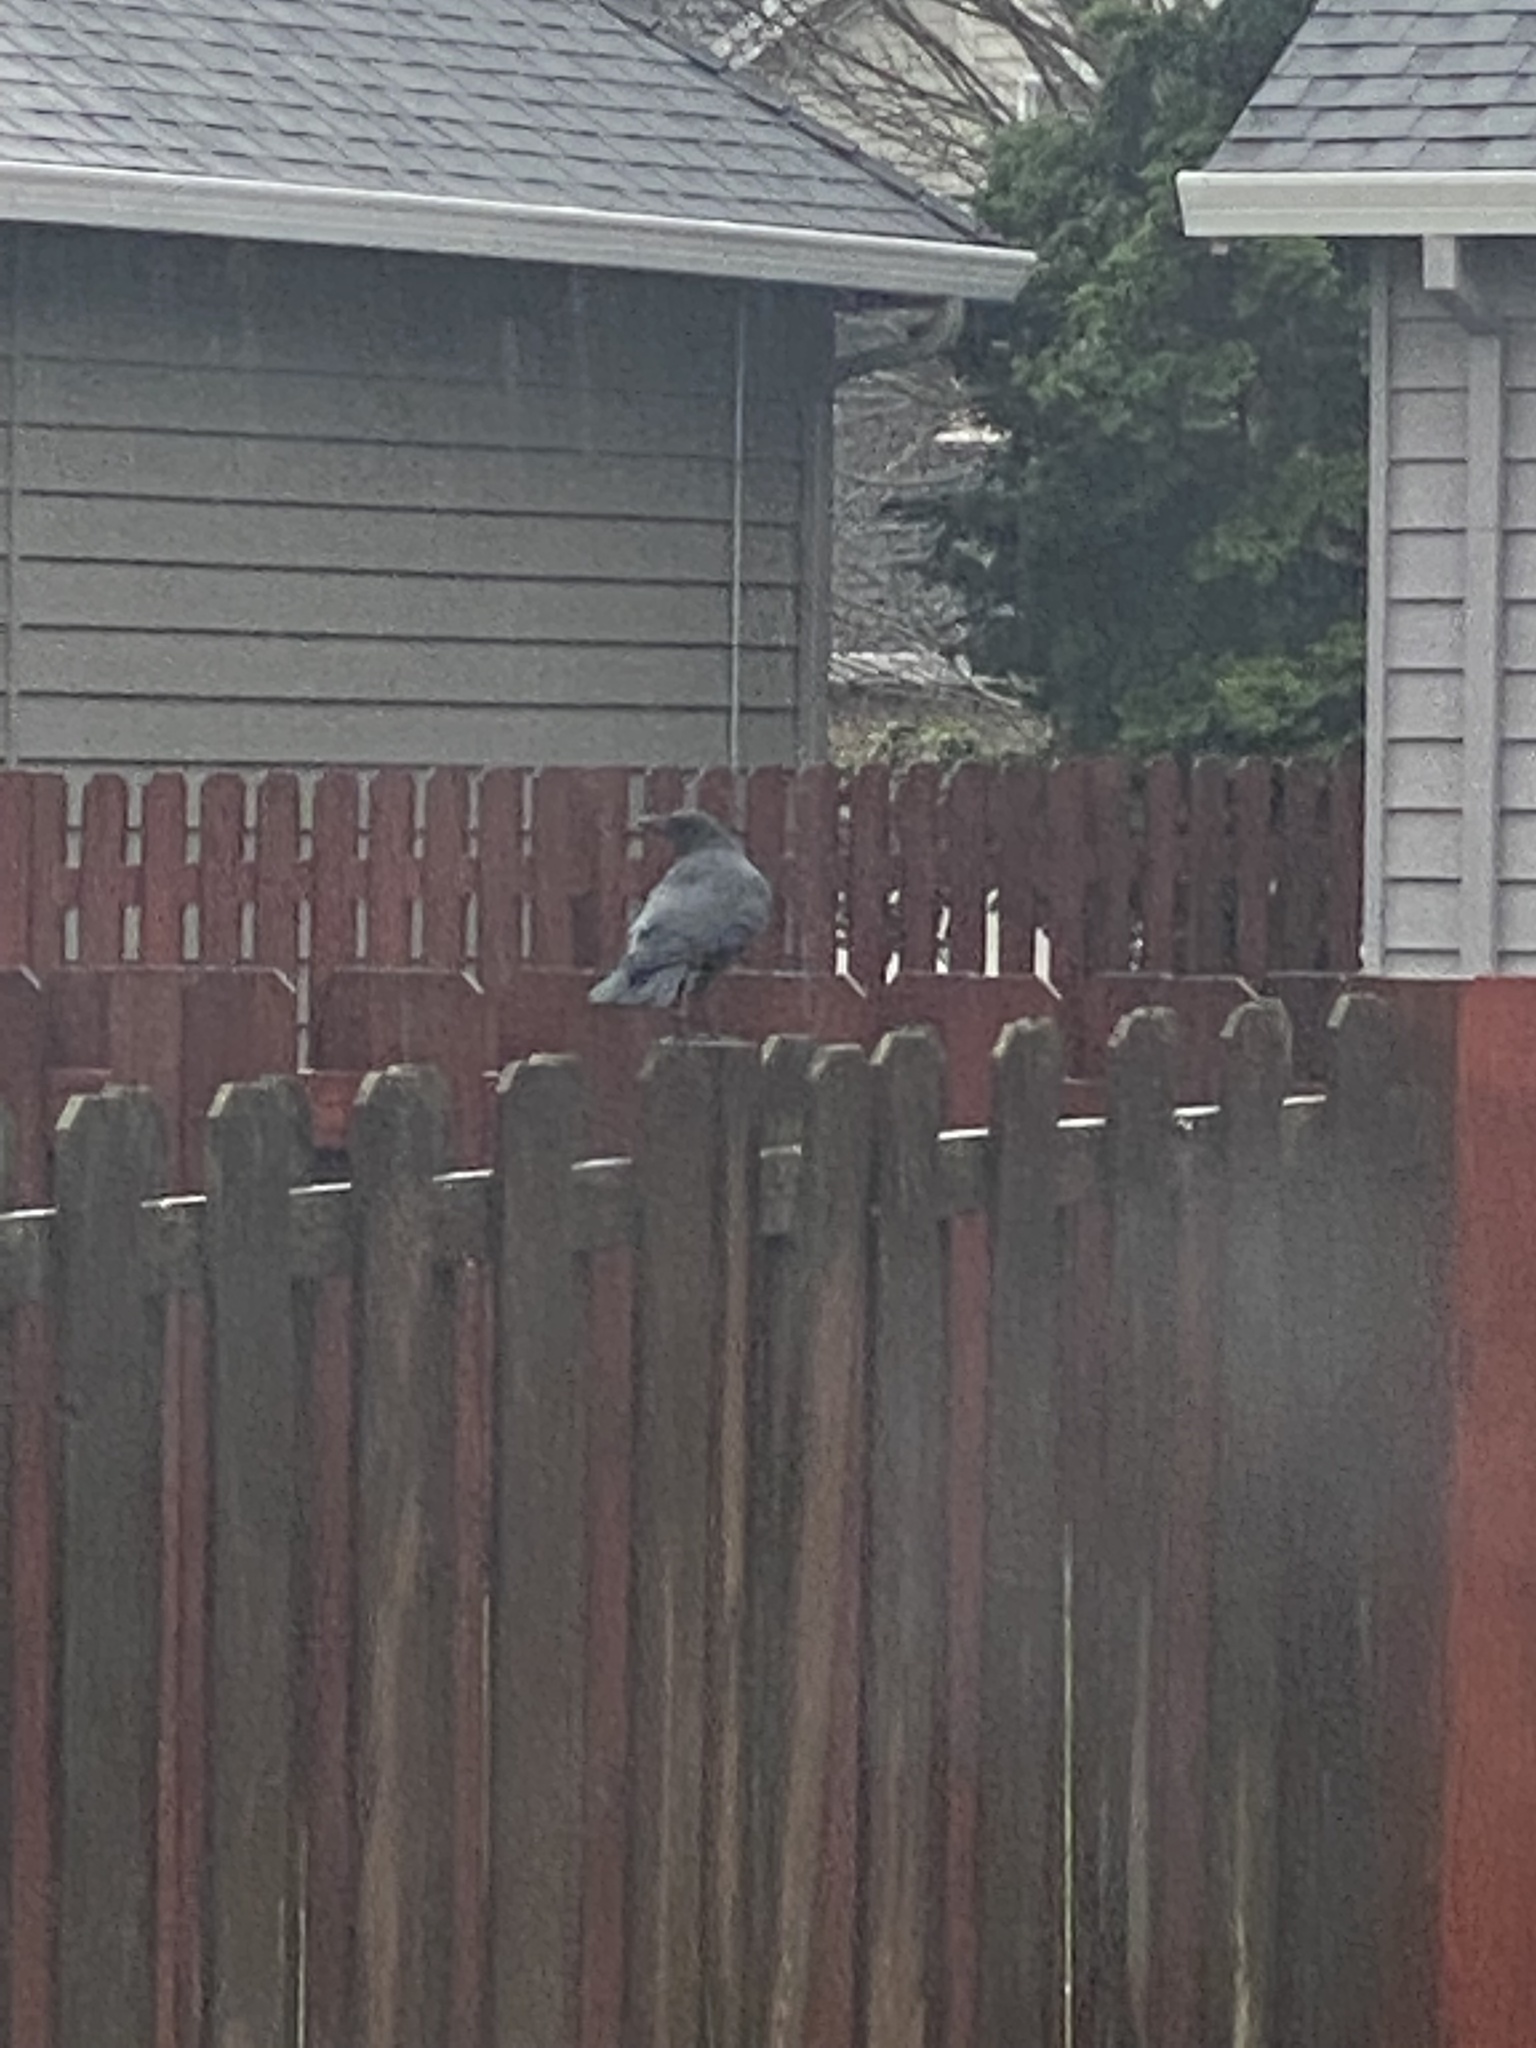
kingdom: Animalia
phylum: Chordata
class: Aves
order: Passeriformes
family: Corvidae
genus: Corvus
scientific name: Corvus brachyrhynchos
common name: American crow
